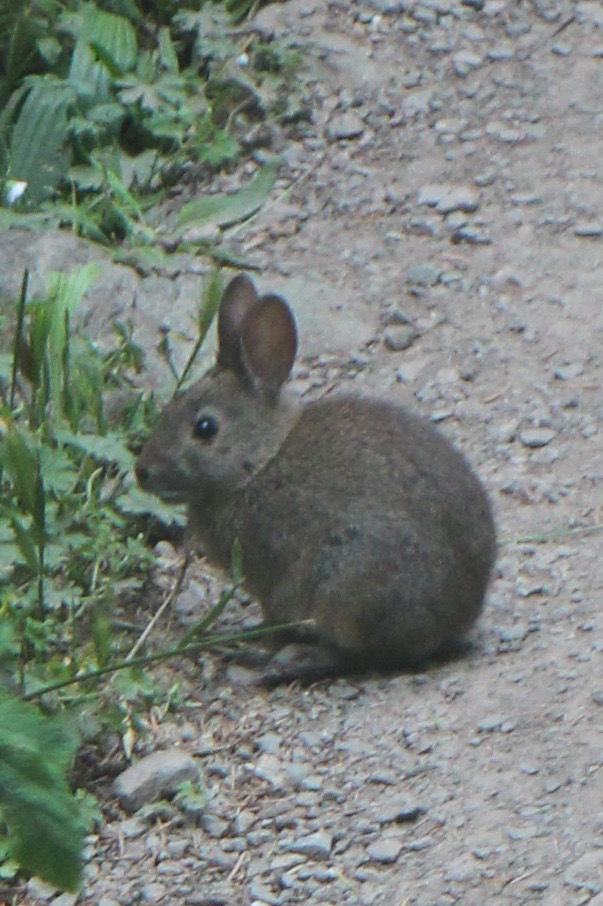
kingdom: Animalia
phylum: Chordata
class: Mammalia
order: Lagomorpha
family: Leporidae
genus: Sylvilagus
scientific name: Sylvilagus bachmani
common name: Brush rabbit
